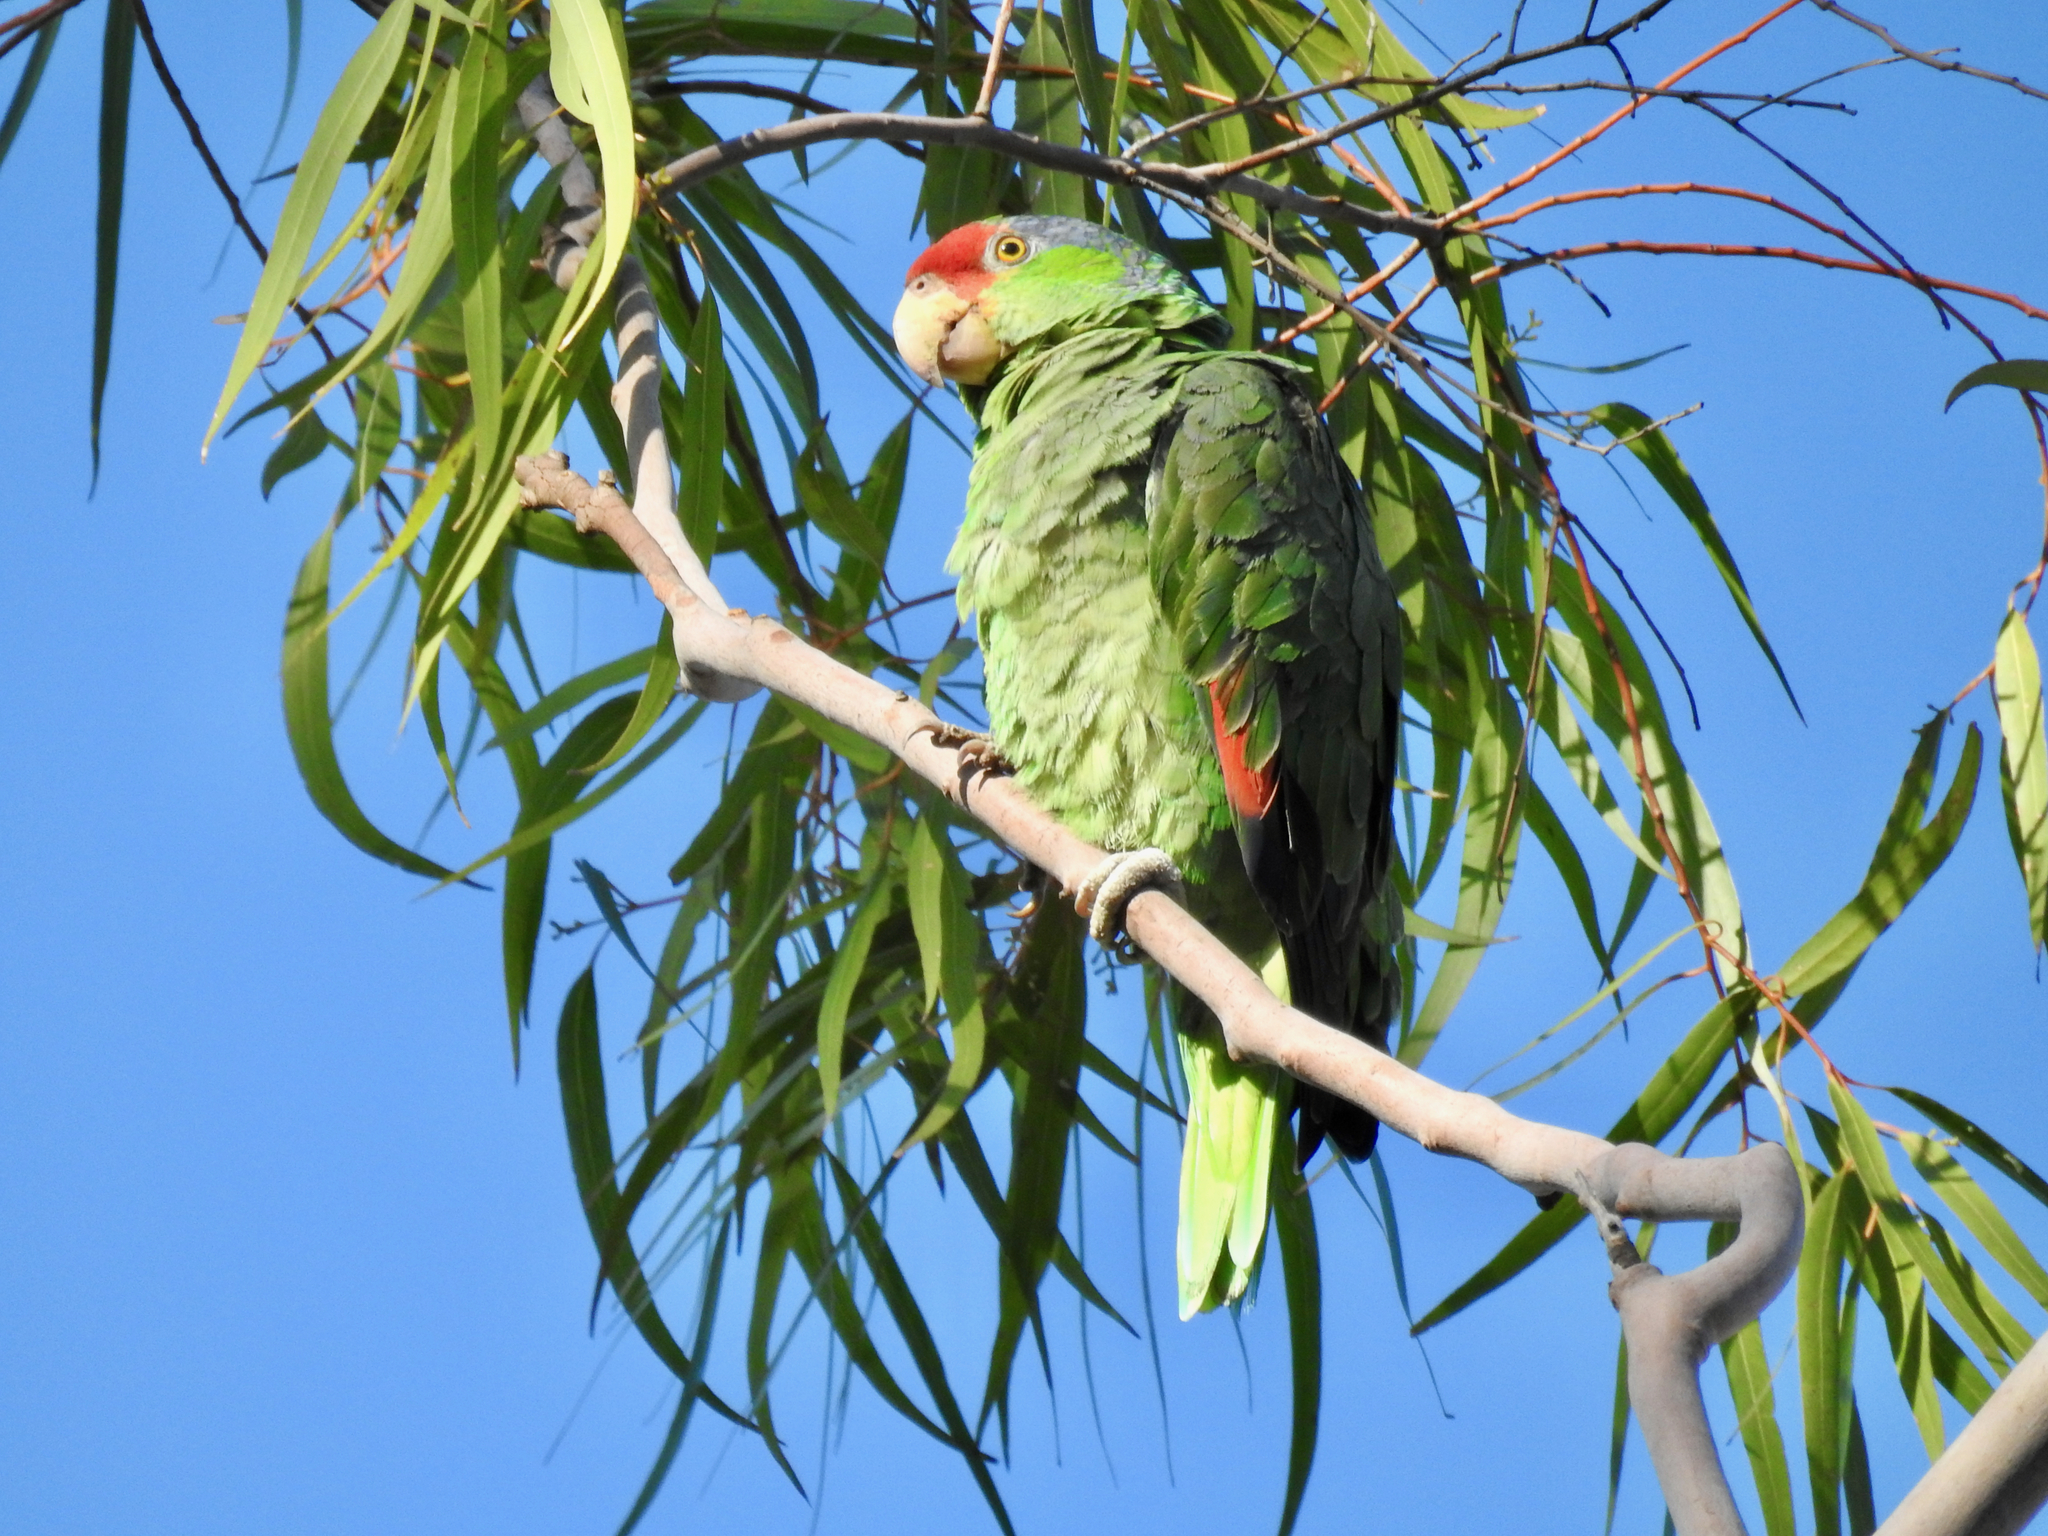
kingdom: Animalia
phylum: Chordata
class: Aves
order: Psittaciformes
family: Psittacidae
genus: Amazona
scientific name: Amazona viridigenalis
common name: Red-crowned amazon
